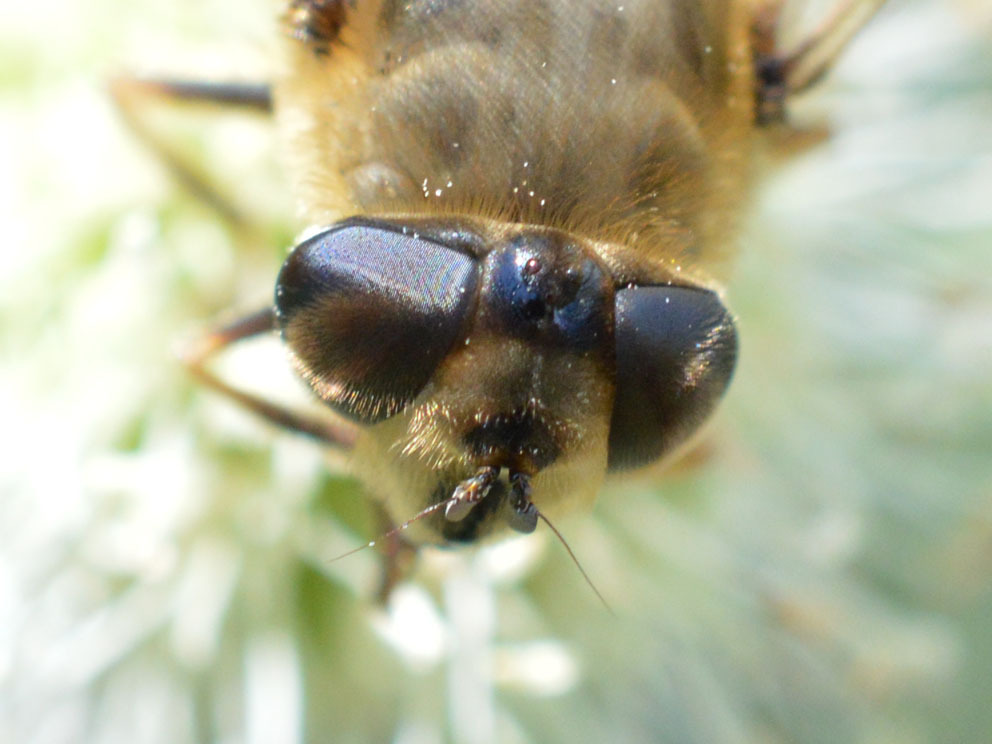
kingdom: Animalia
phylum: Arthropoda
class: Insecta
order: Diptera
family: Syrphidae
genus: Eristalis
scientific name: Eristalis tenax
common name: Drone fly
